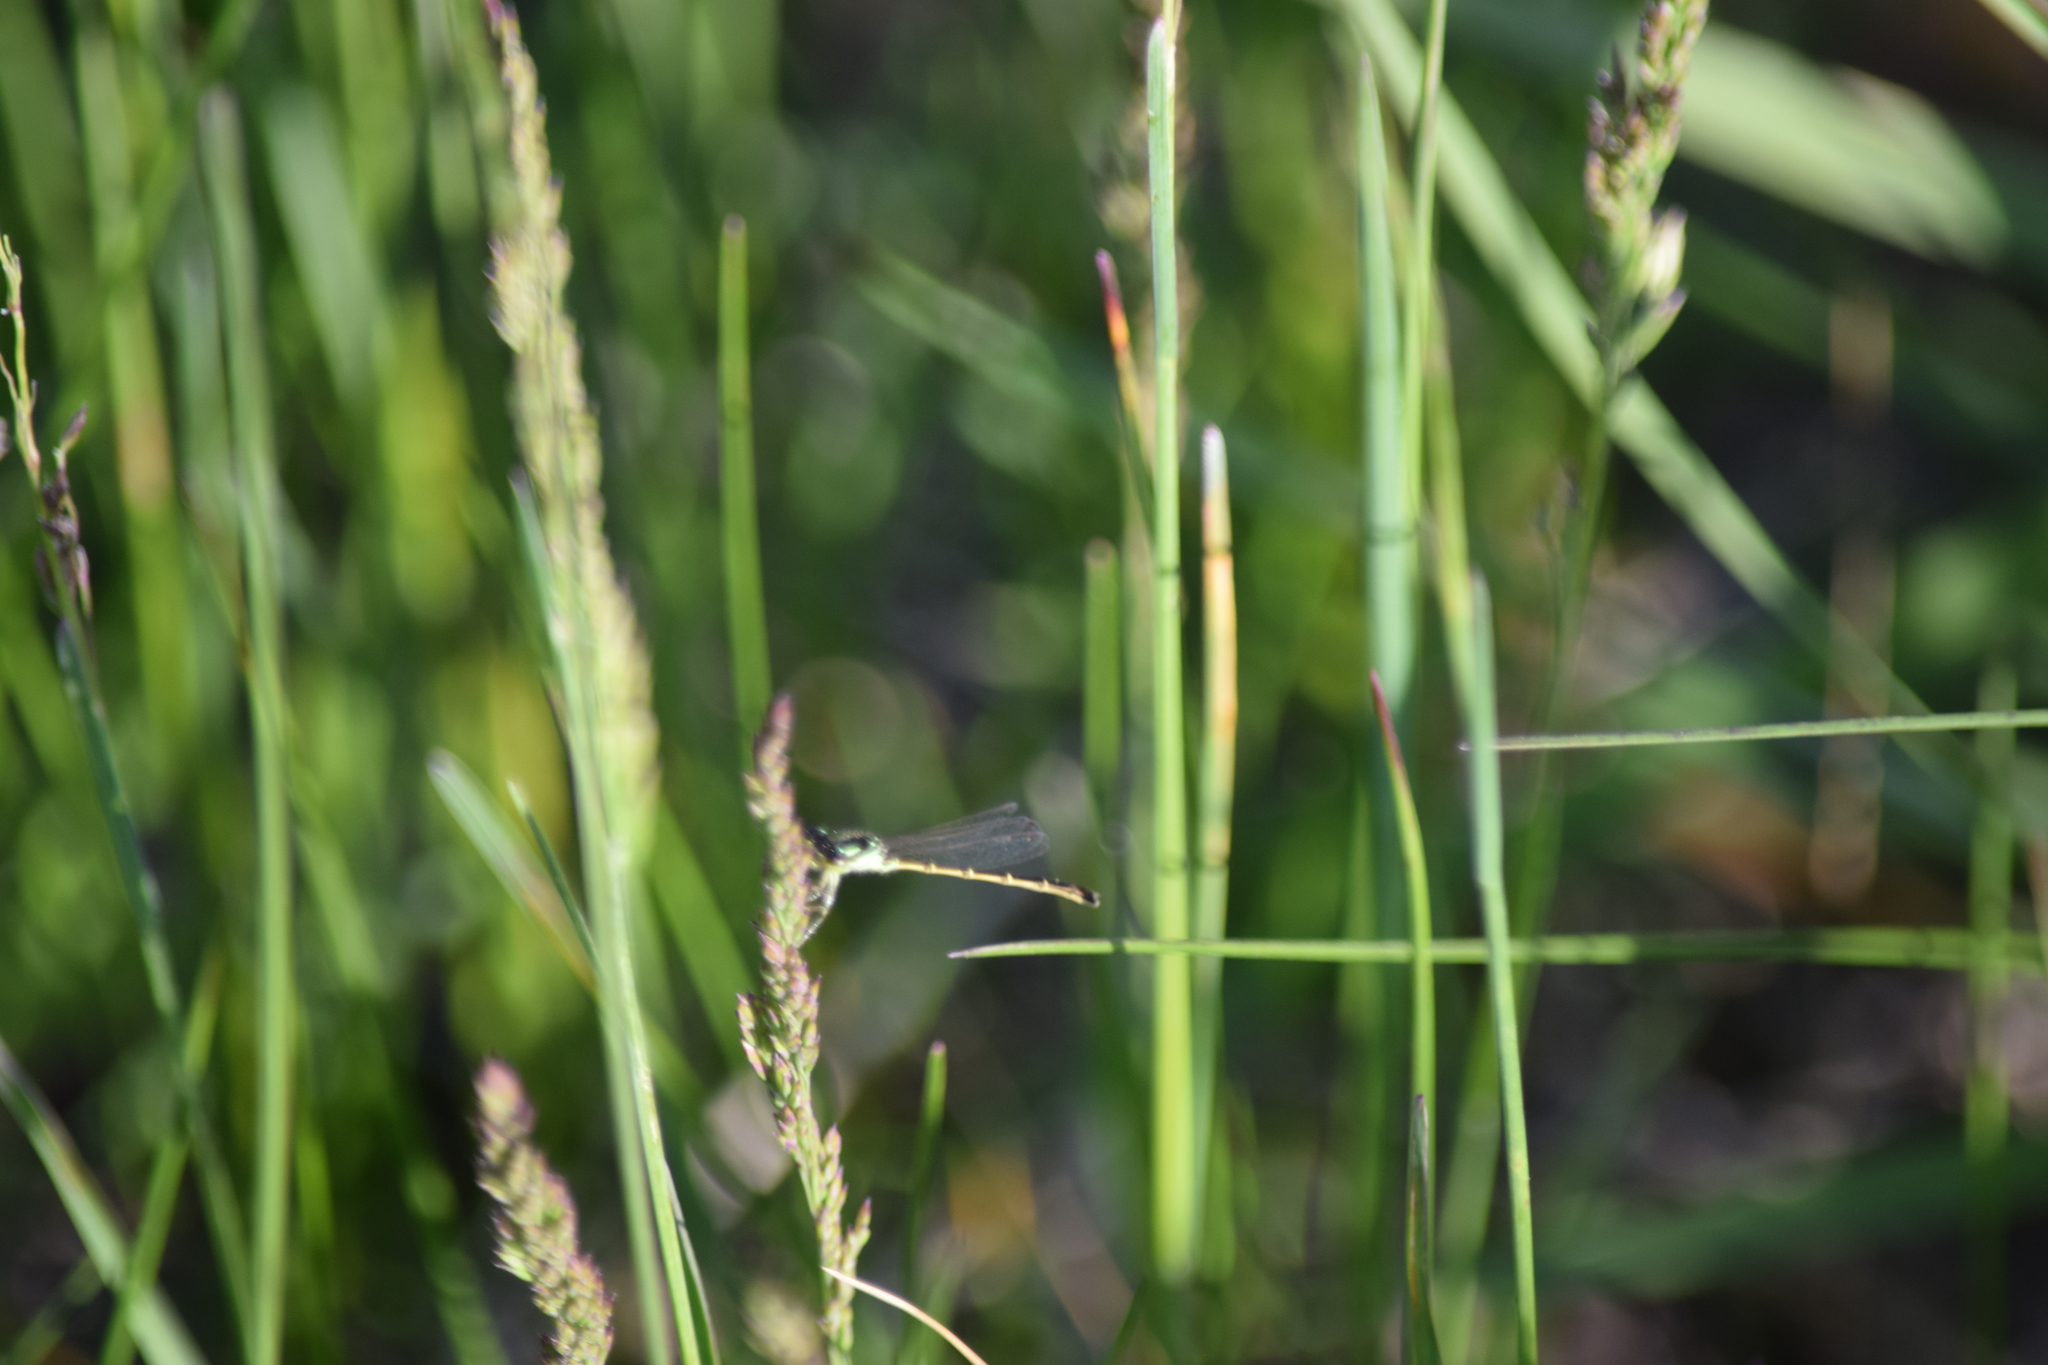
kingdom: Animalia
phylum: Arthropoda
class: Insecta
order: Odonata
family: Coenagrionidae
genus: Ischnura
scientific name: Ischnura posita
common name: Fragile forktail
